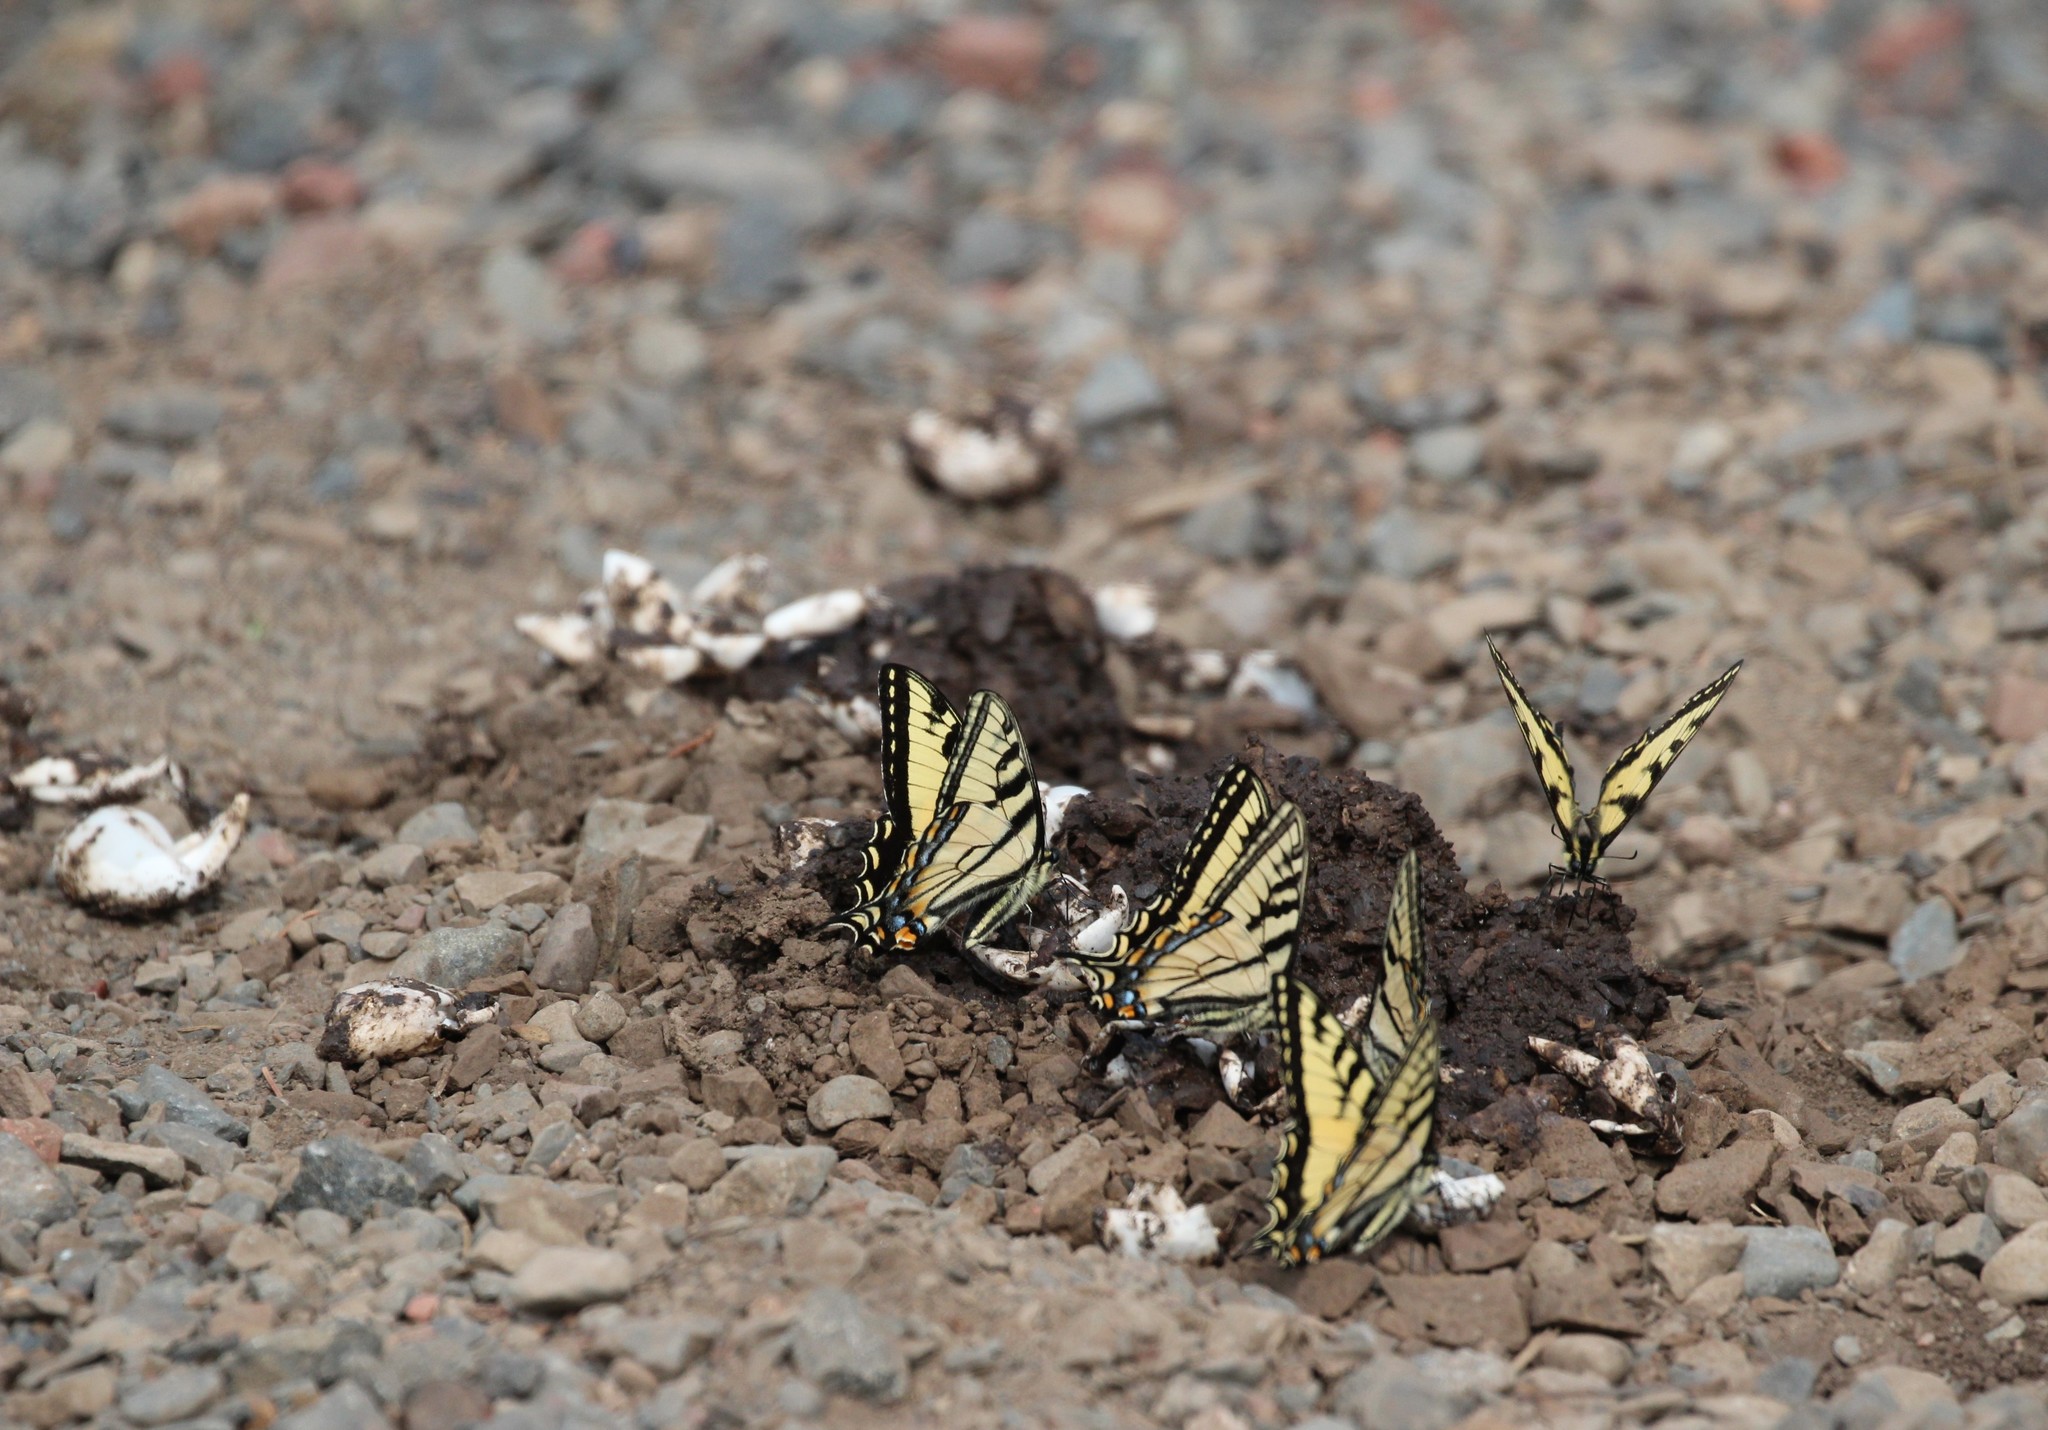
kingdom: Animalia
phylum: Arthropoda
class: Insecta
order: Lepidoptera
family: Papilionidae
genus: Papilio
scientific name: Papilio canadensis
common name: Canadian tiger swallowtail
